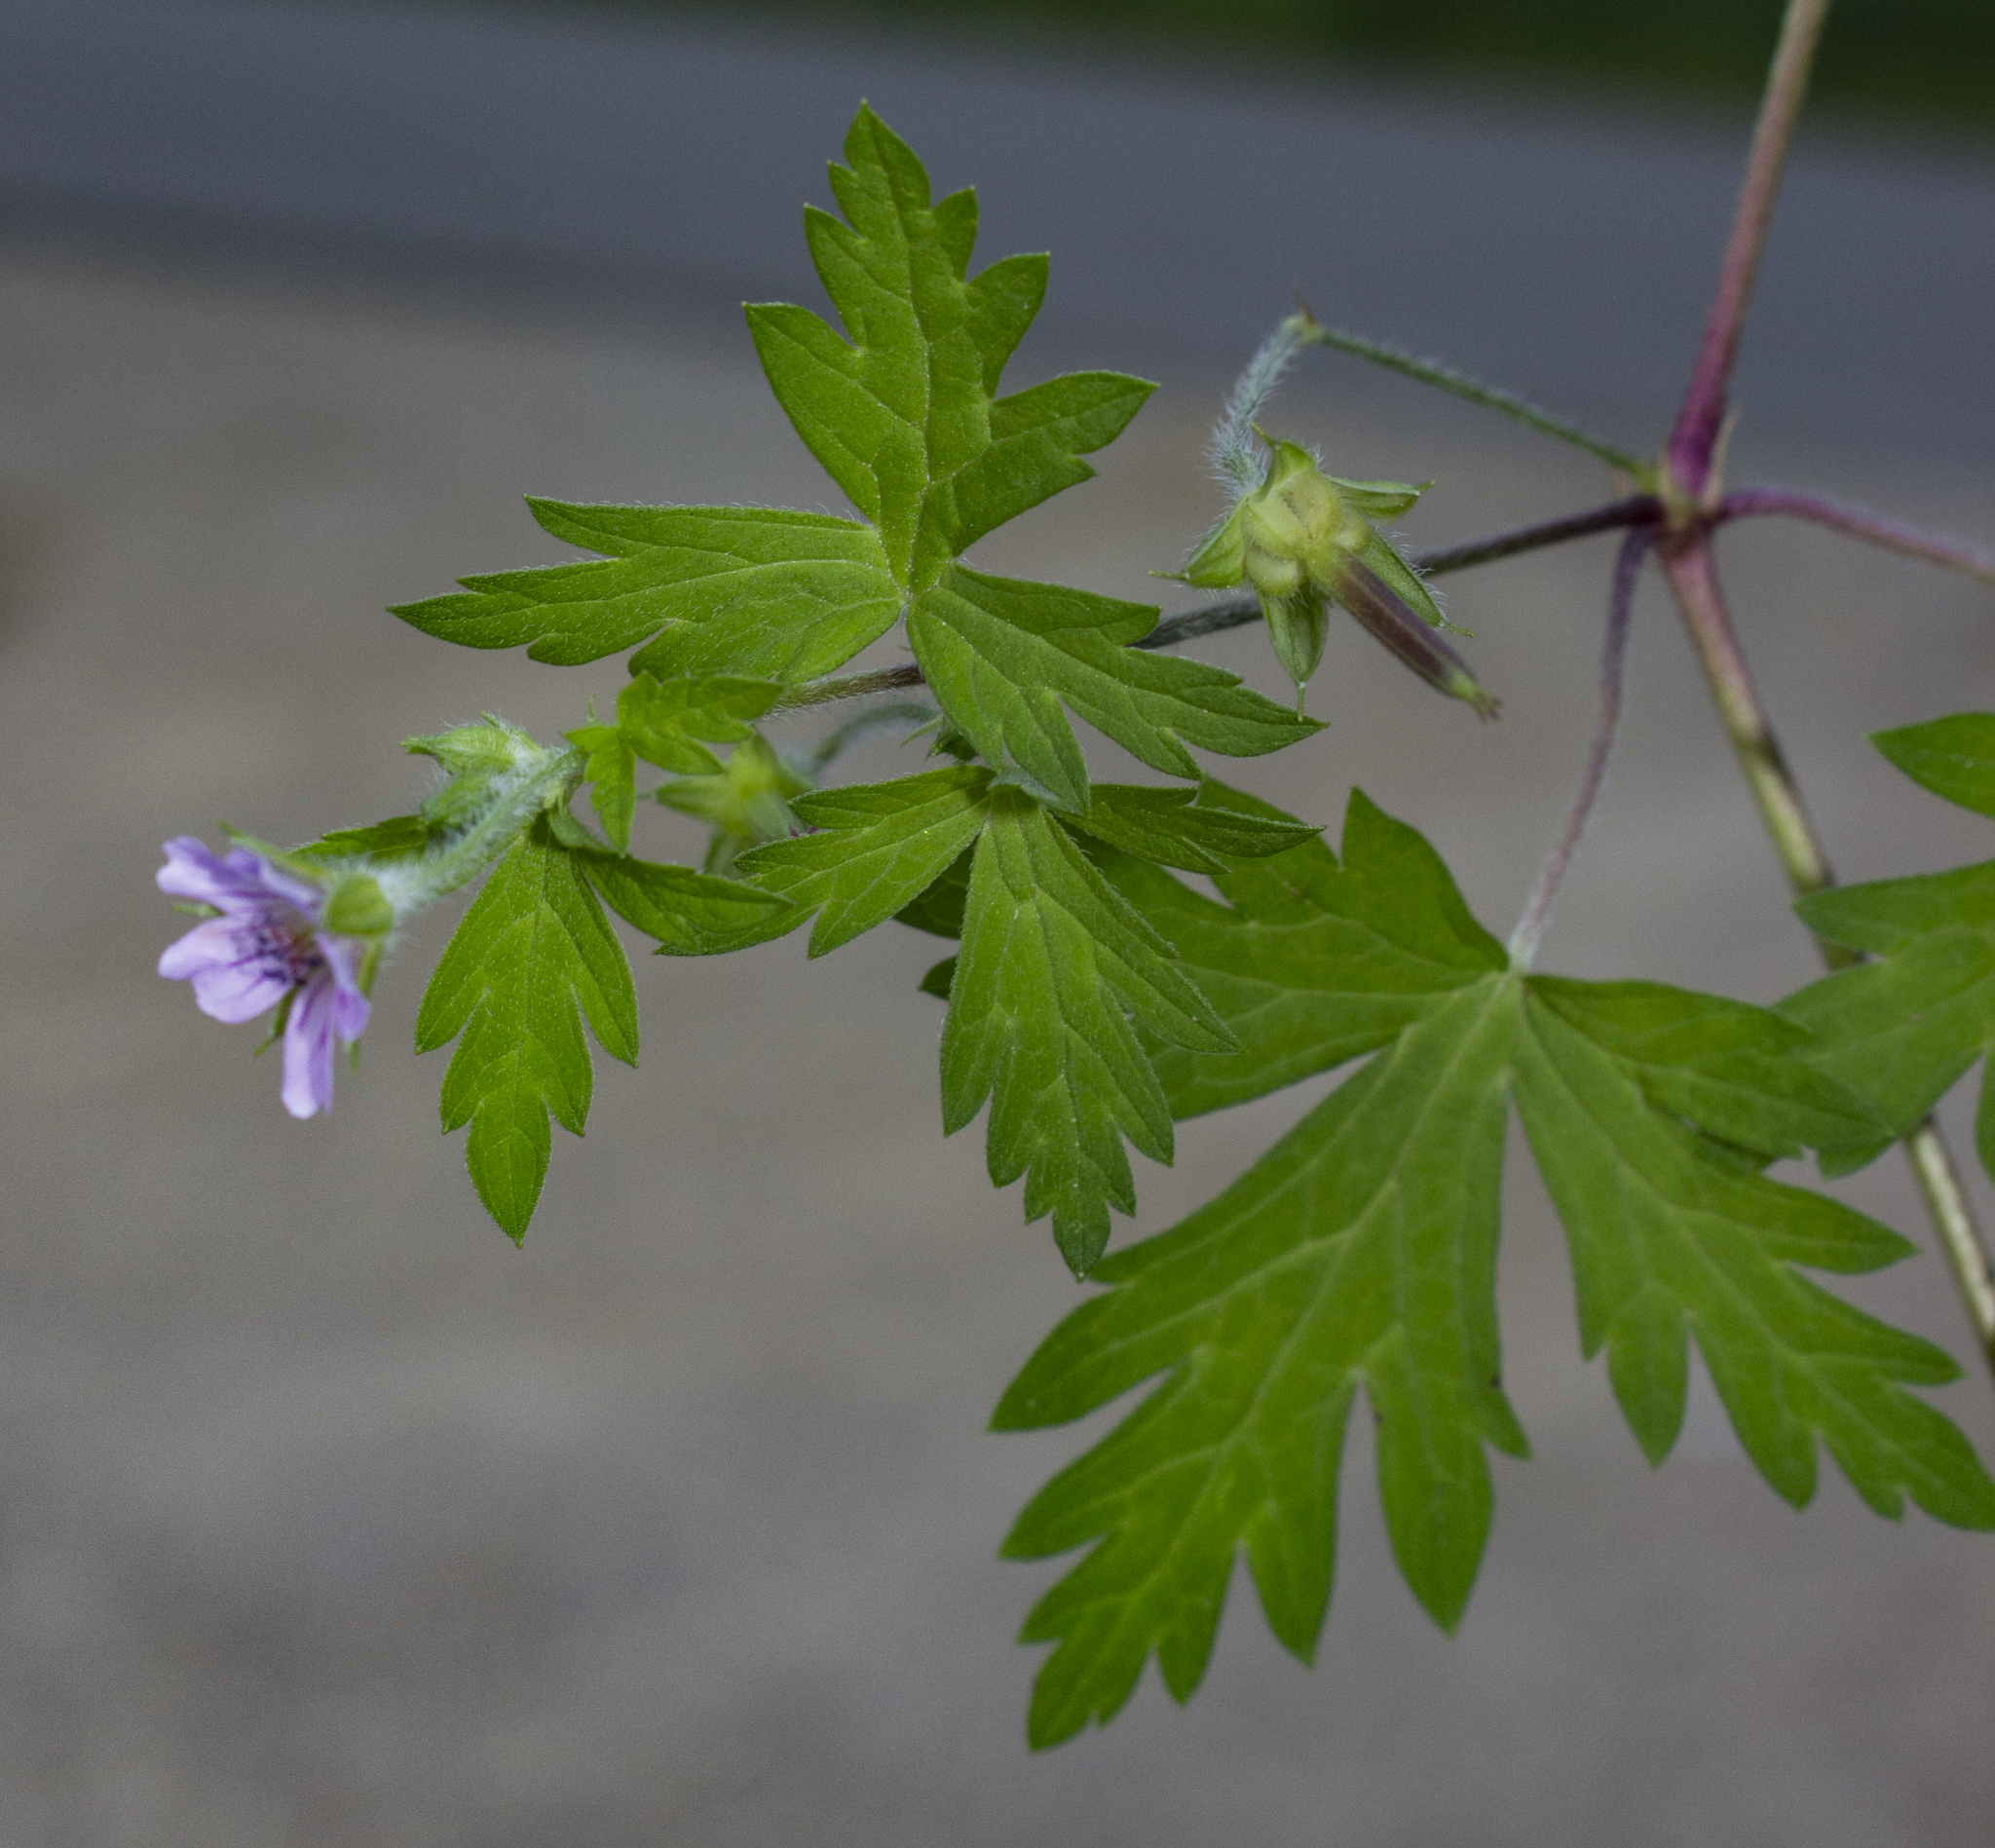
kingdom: Plantae
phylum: Tracheophyta
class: Magnoliopsida
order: Geraniales
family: Geraniaceae
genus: Geranium
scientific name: Geranium sibiricum
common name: Siberian crane's-bill
